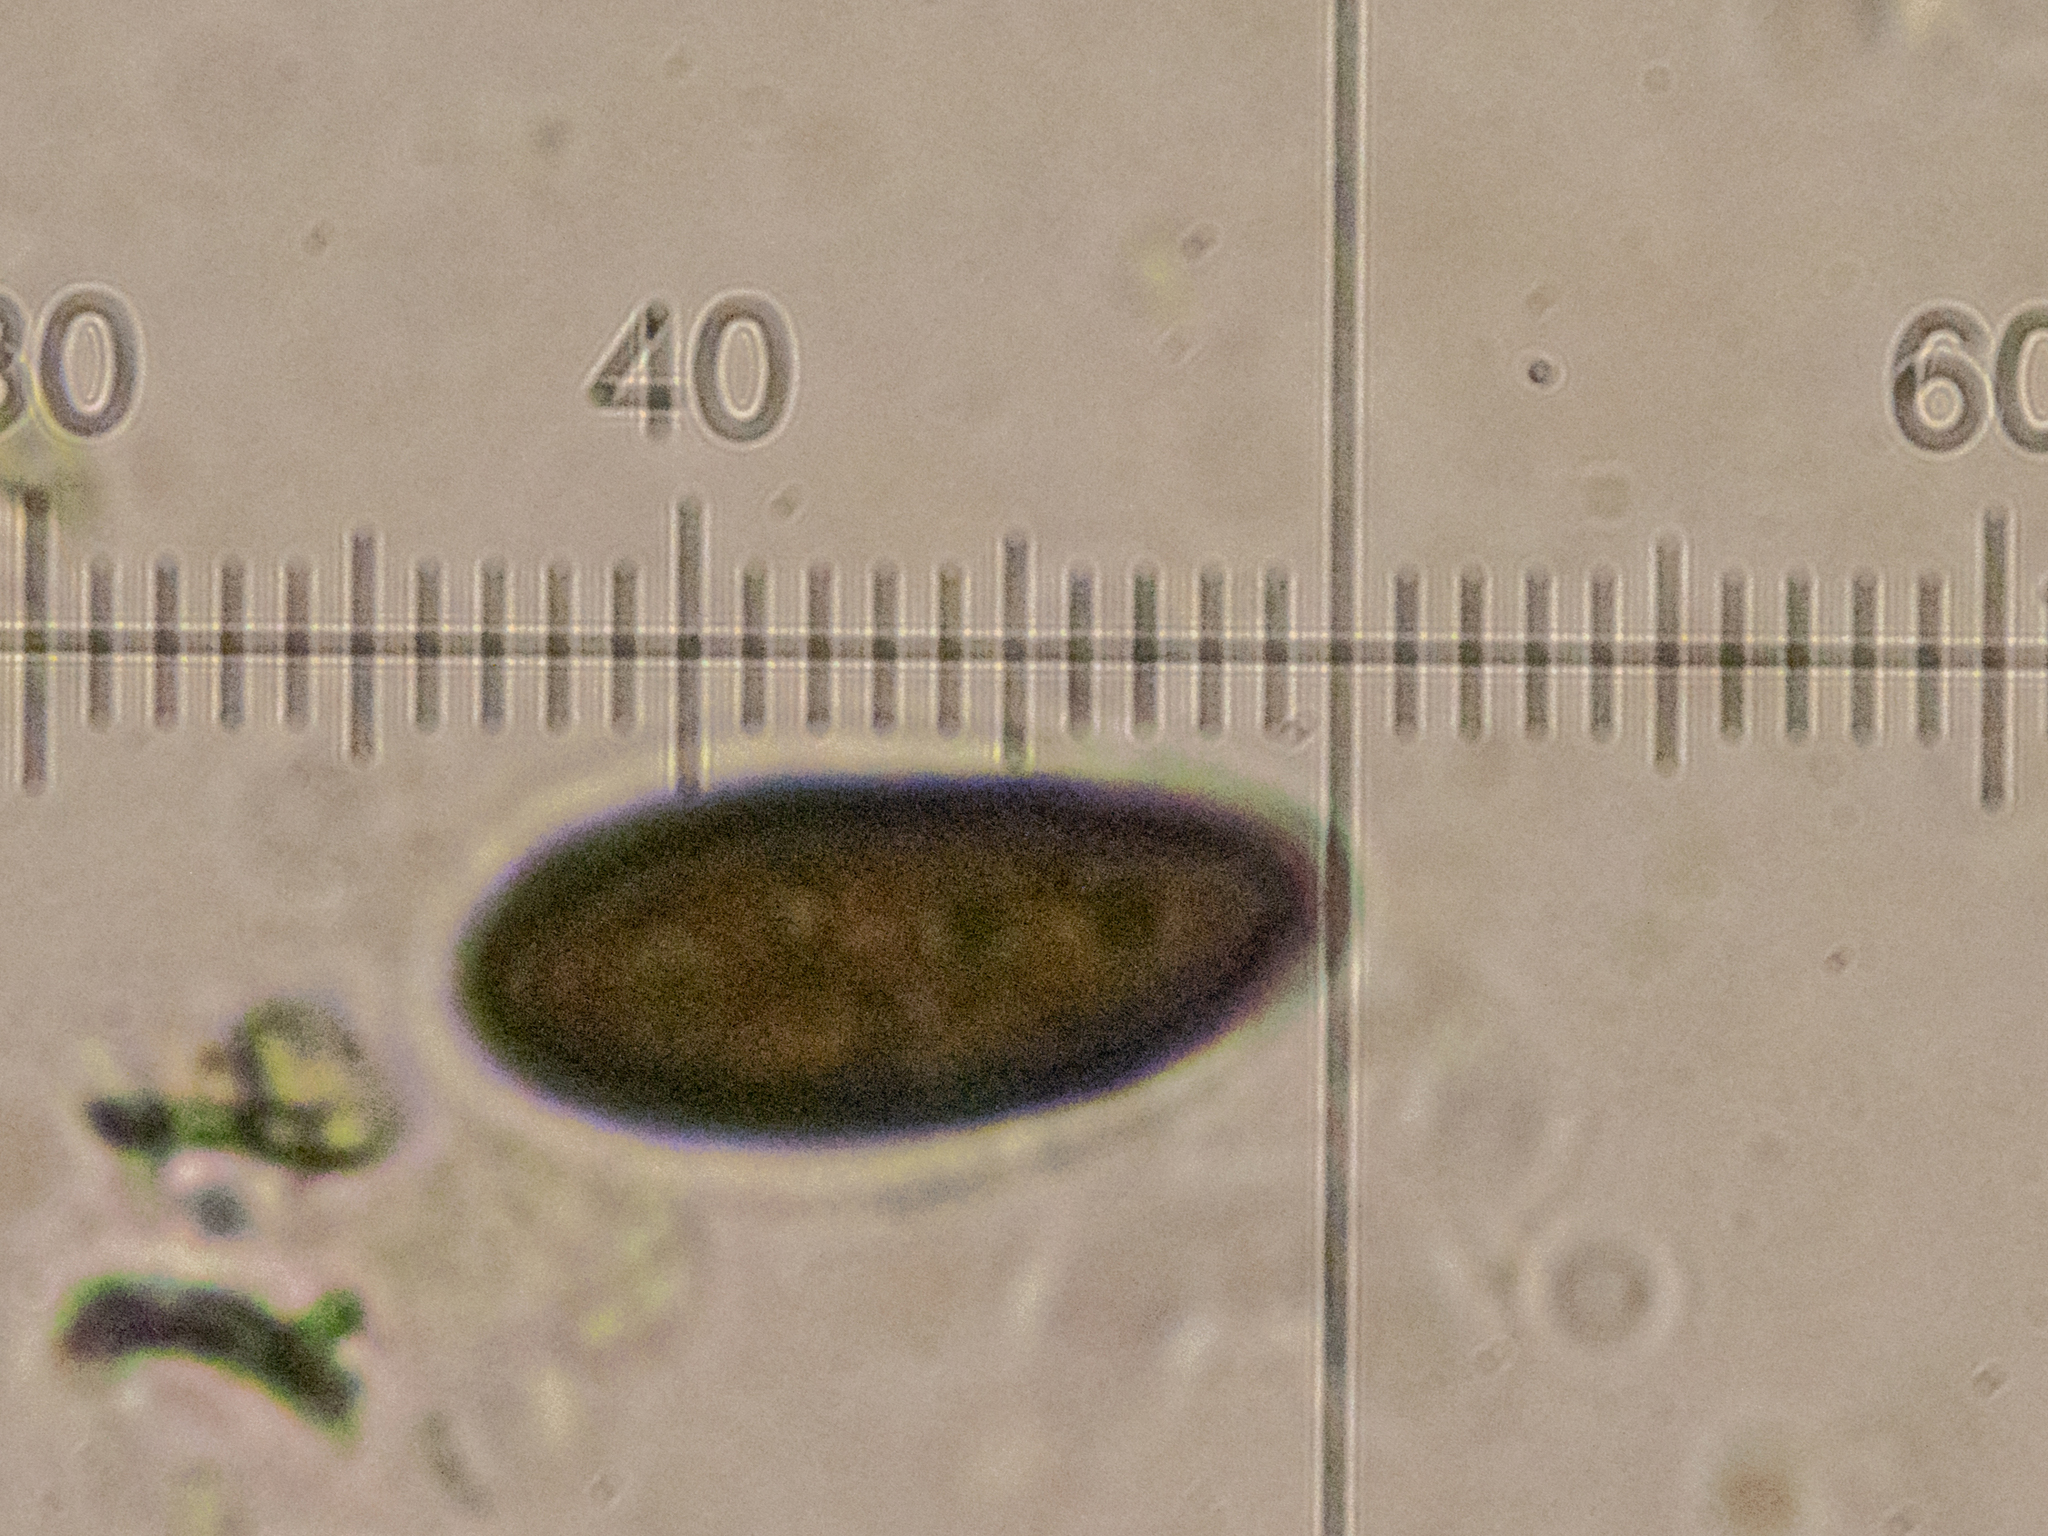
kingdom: Fungi
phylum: Ascomycota
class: Sordariomycetes
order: Xylariales
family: Hypoxylaceae
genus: Hypoxylon
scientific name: Hypoxylon fuscum
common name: Hazel woodwart
